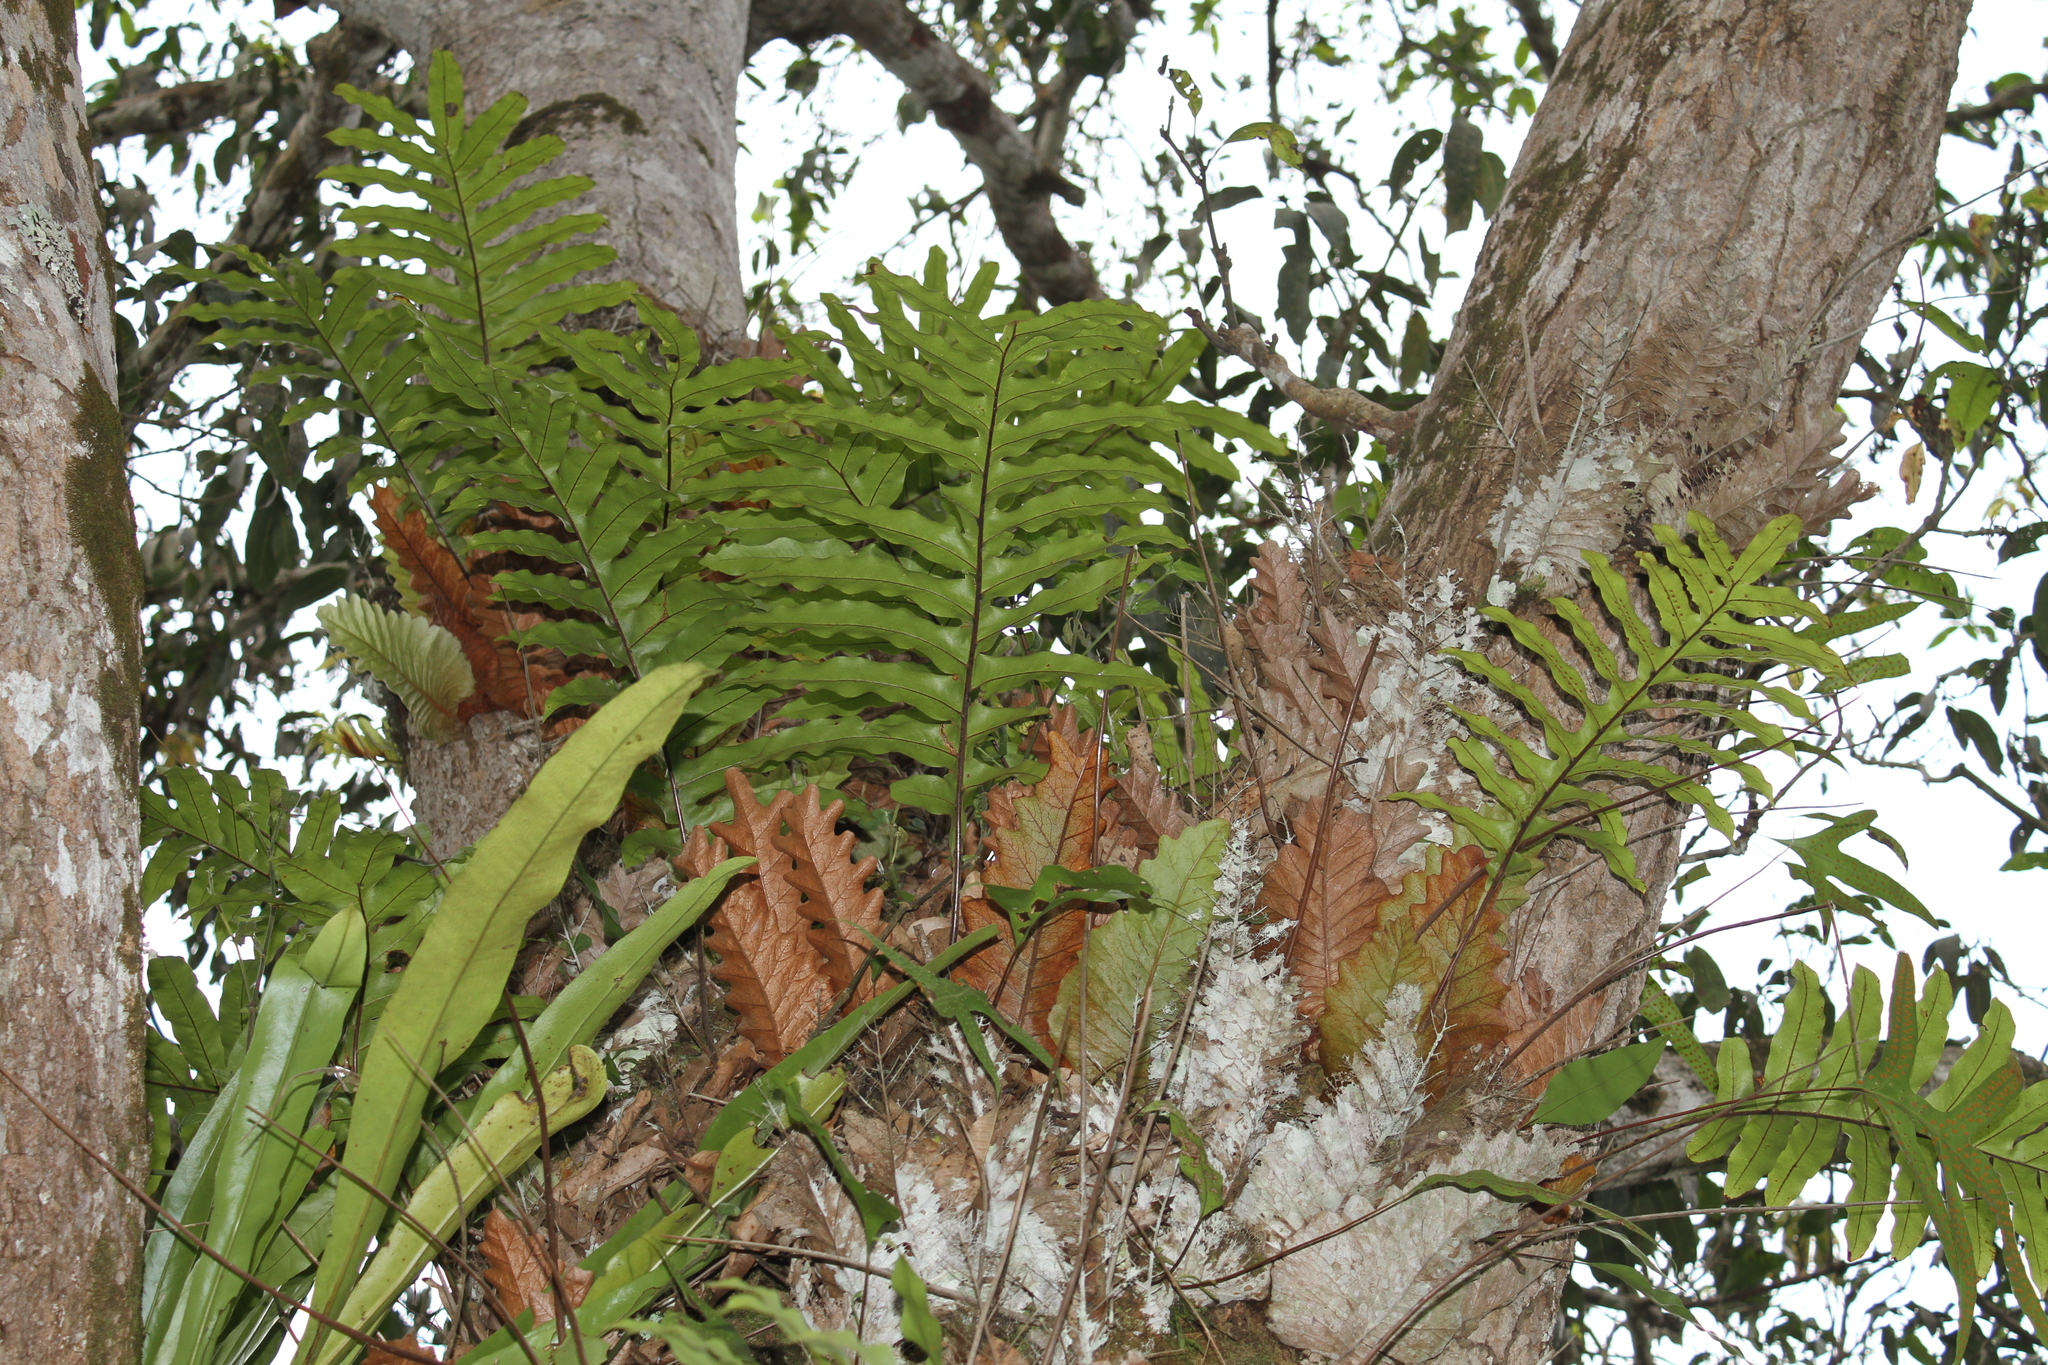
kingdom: Plantae
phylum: Tracheophyta
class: Polypodiopsida
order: Polypodiales
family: Polypodiaceae
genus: Drynaria
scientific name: Drynaria laurentii
